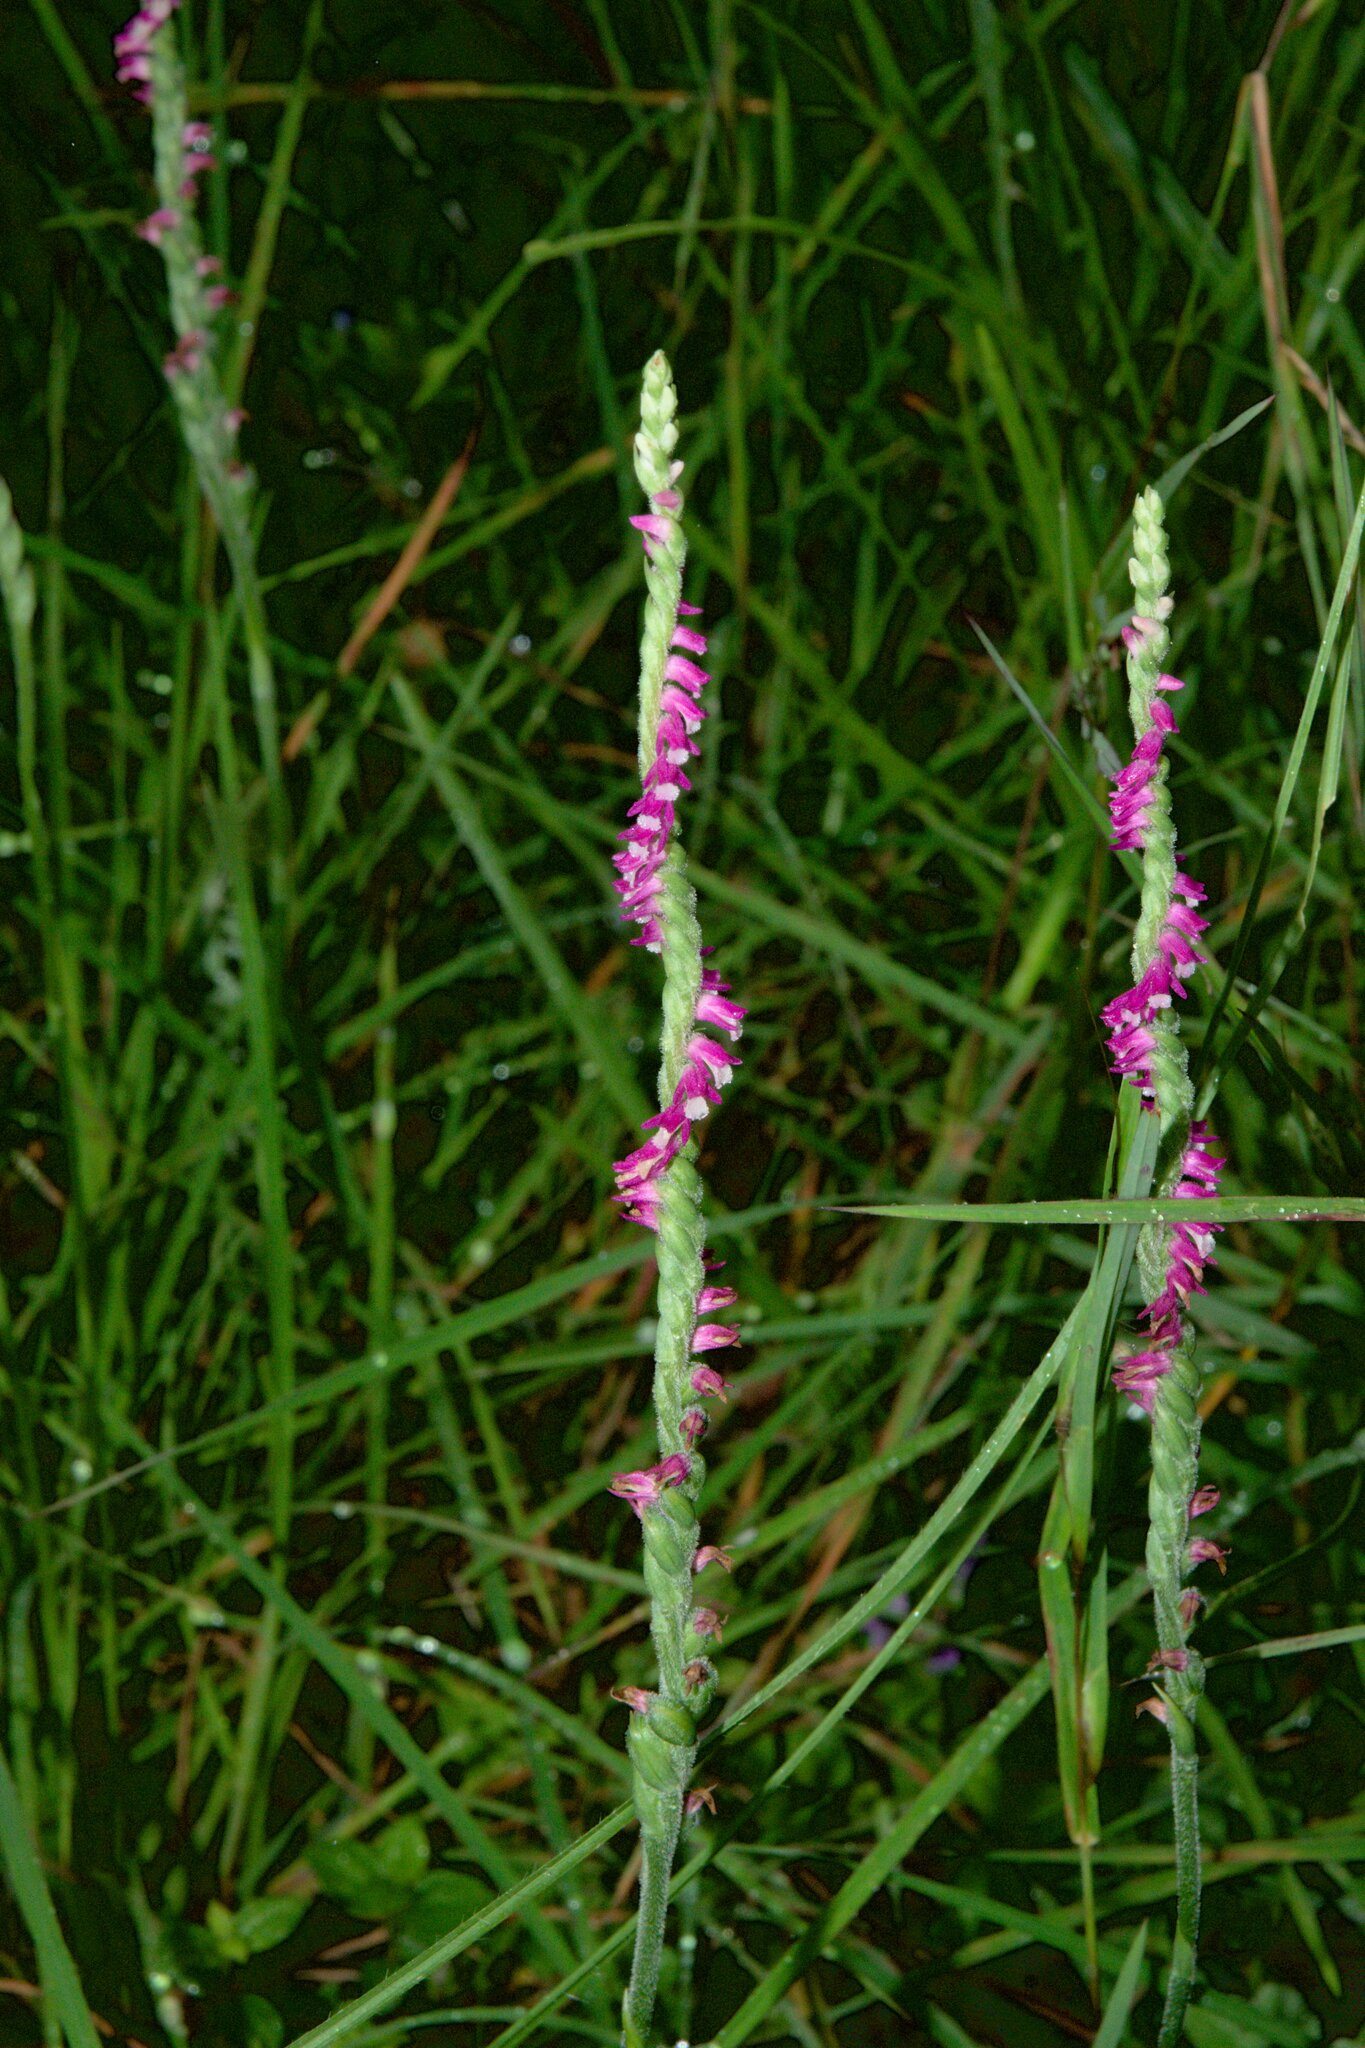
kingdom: Plantae
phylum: Tracheophyta
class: Liliopsida
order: Asparagales
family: Orchidaceae
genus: Spiranthes
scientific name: Spiranthes australis
